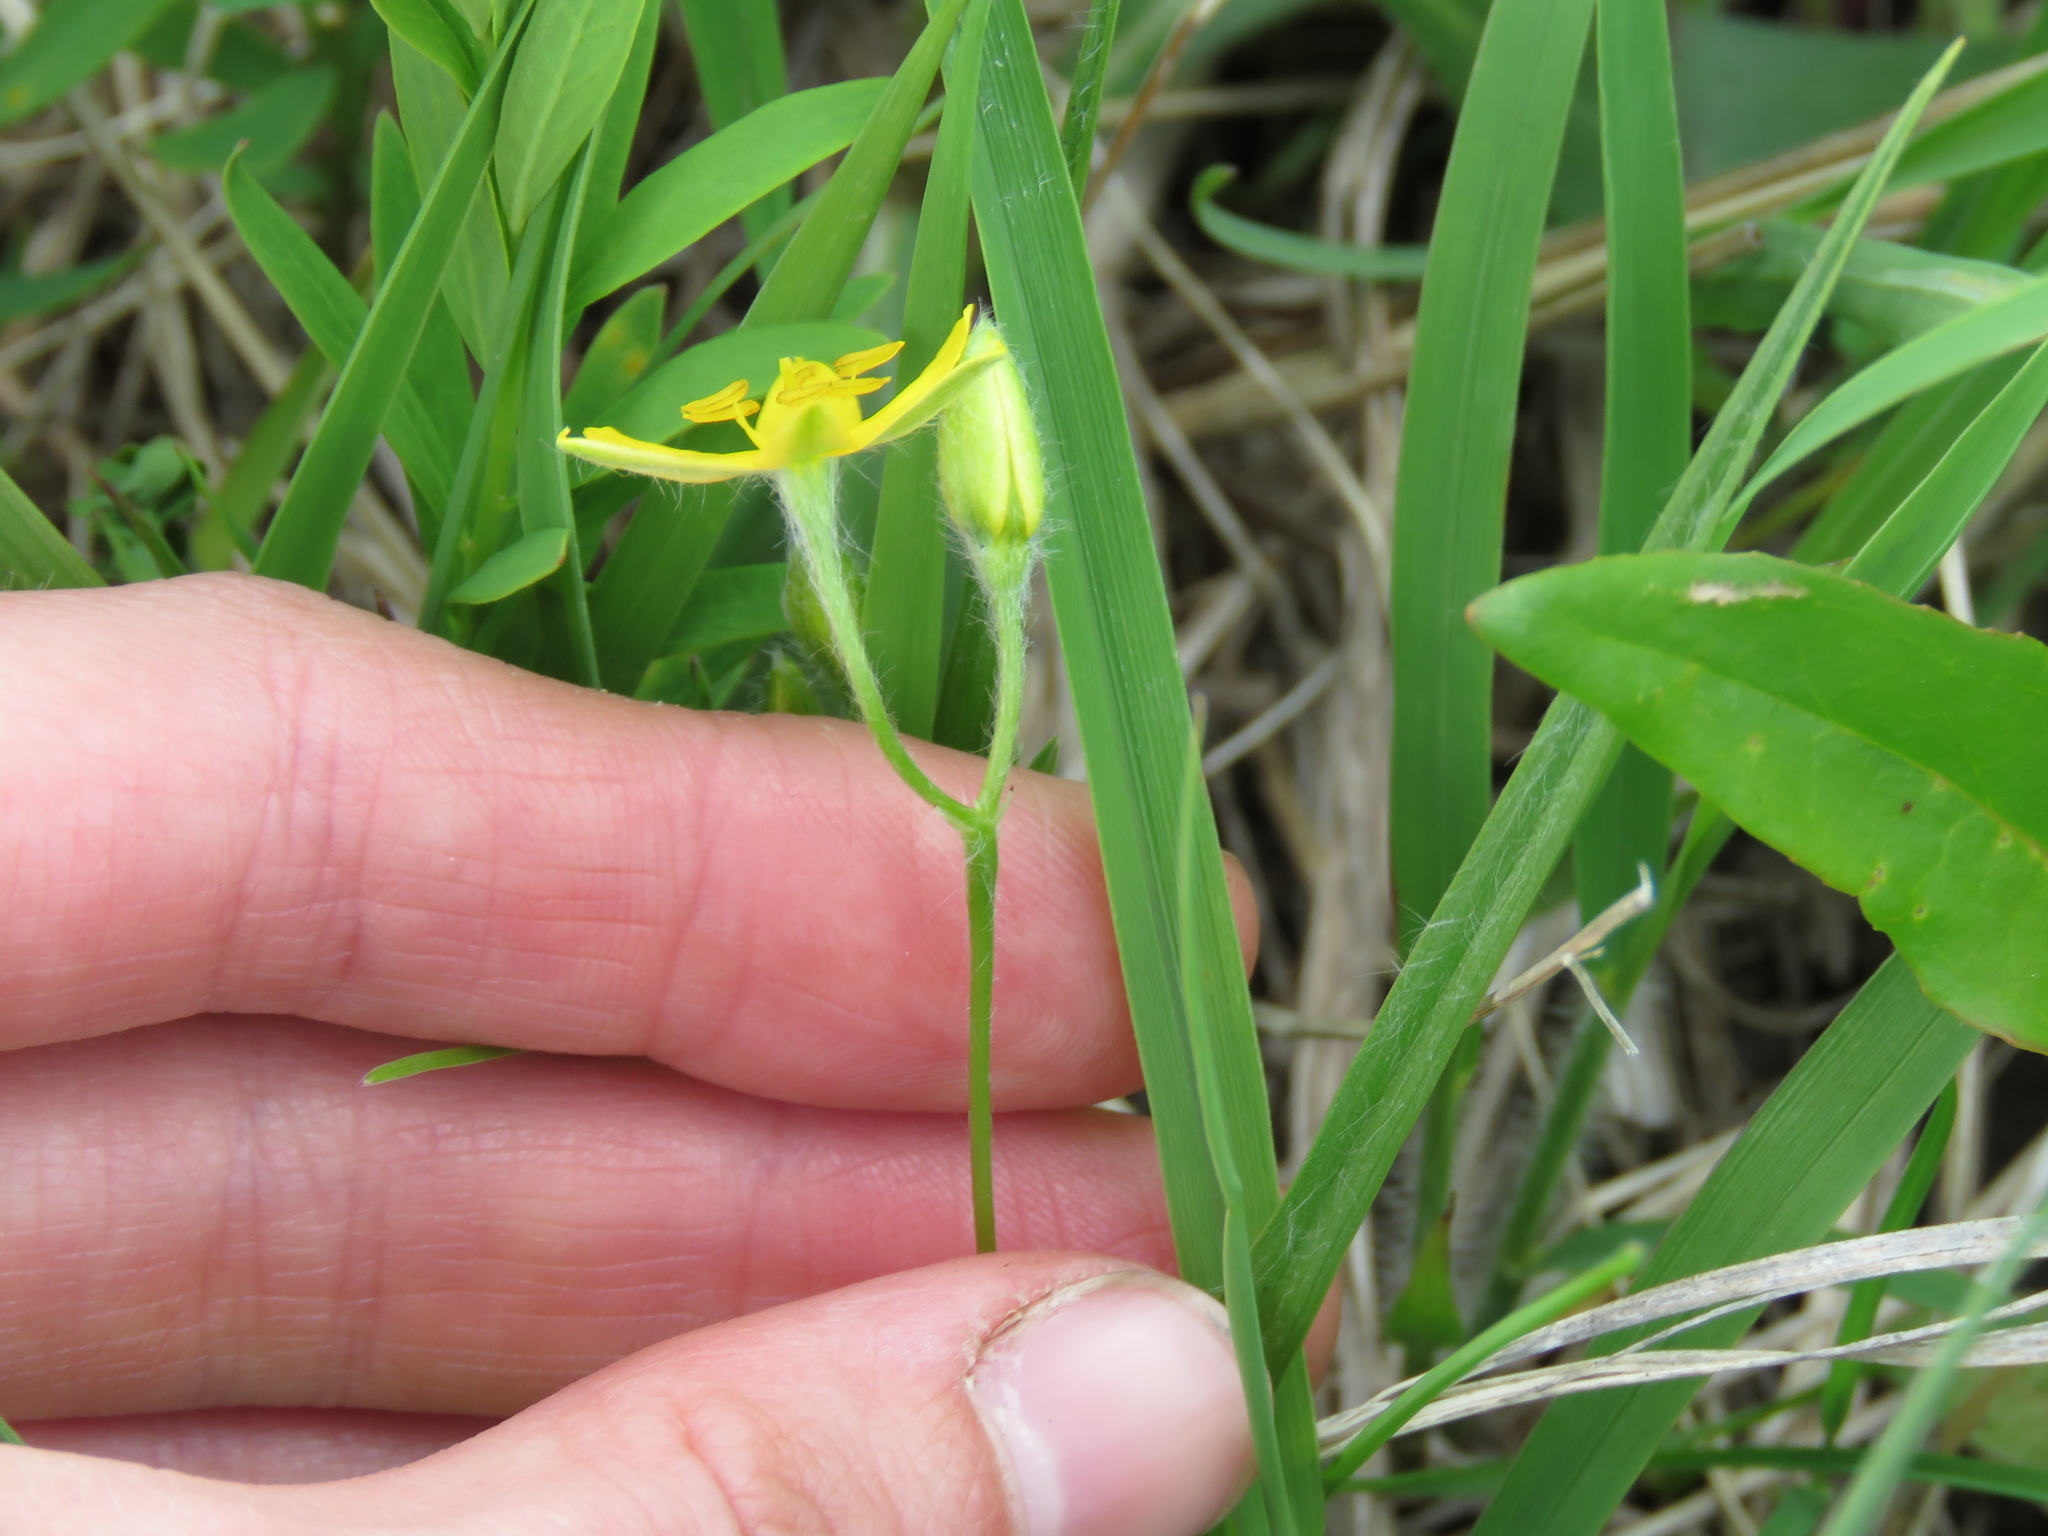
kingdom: Plantae
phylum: Tracheophyta
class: Liliopsida
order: Asparagales
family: Hypoxidaceae
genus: Hypoxis
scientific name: Hypoxis hirsuta
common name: Common goldstar
